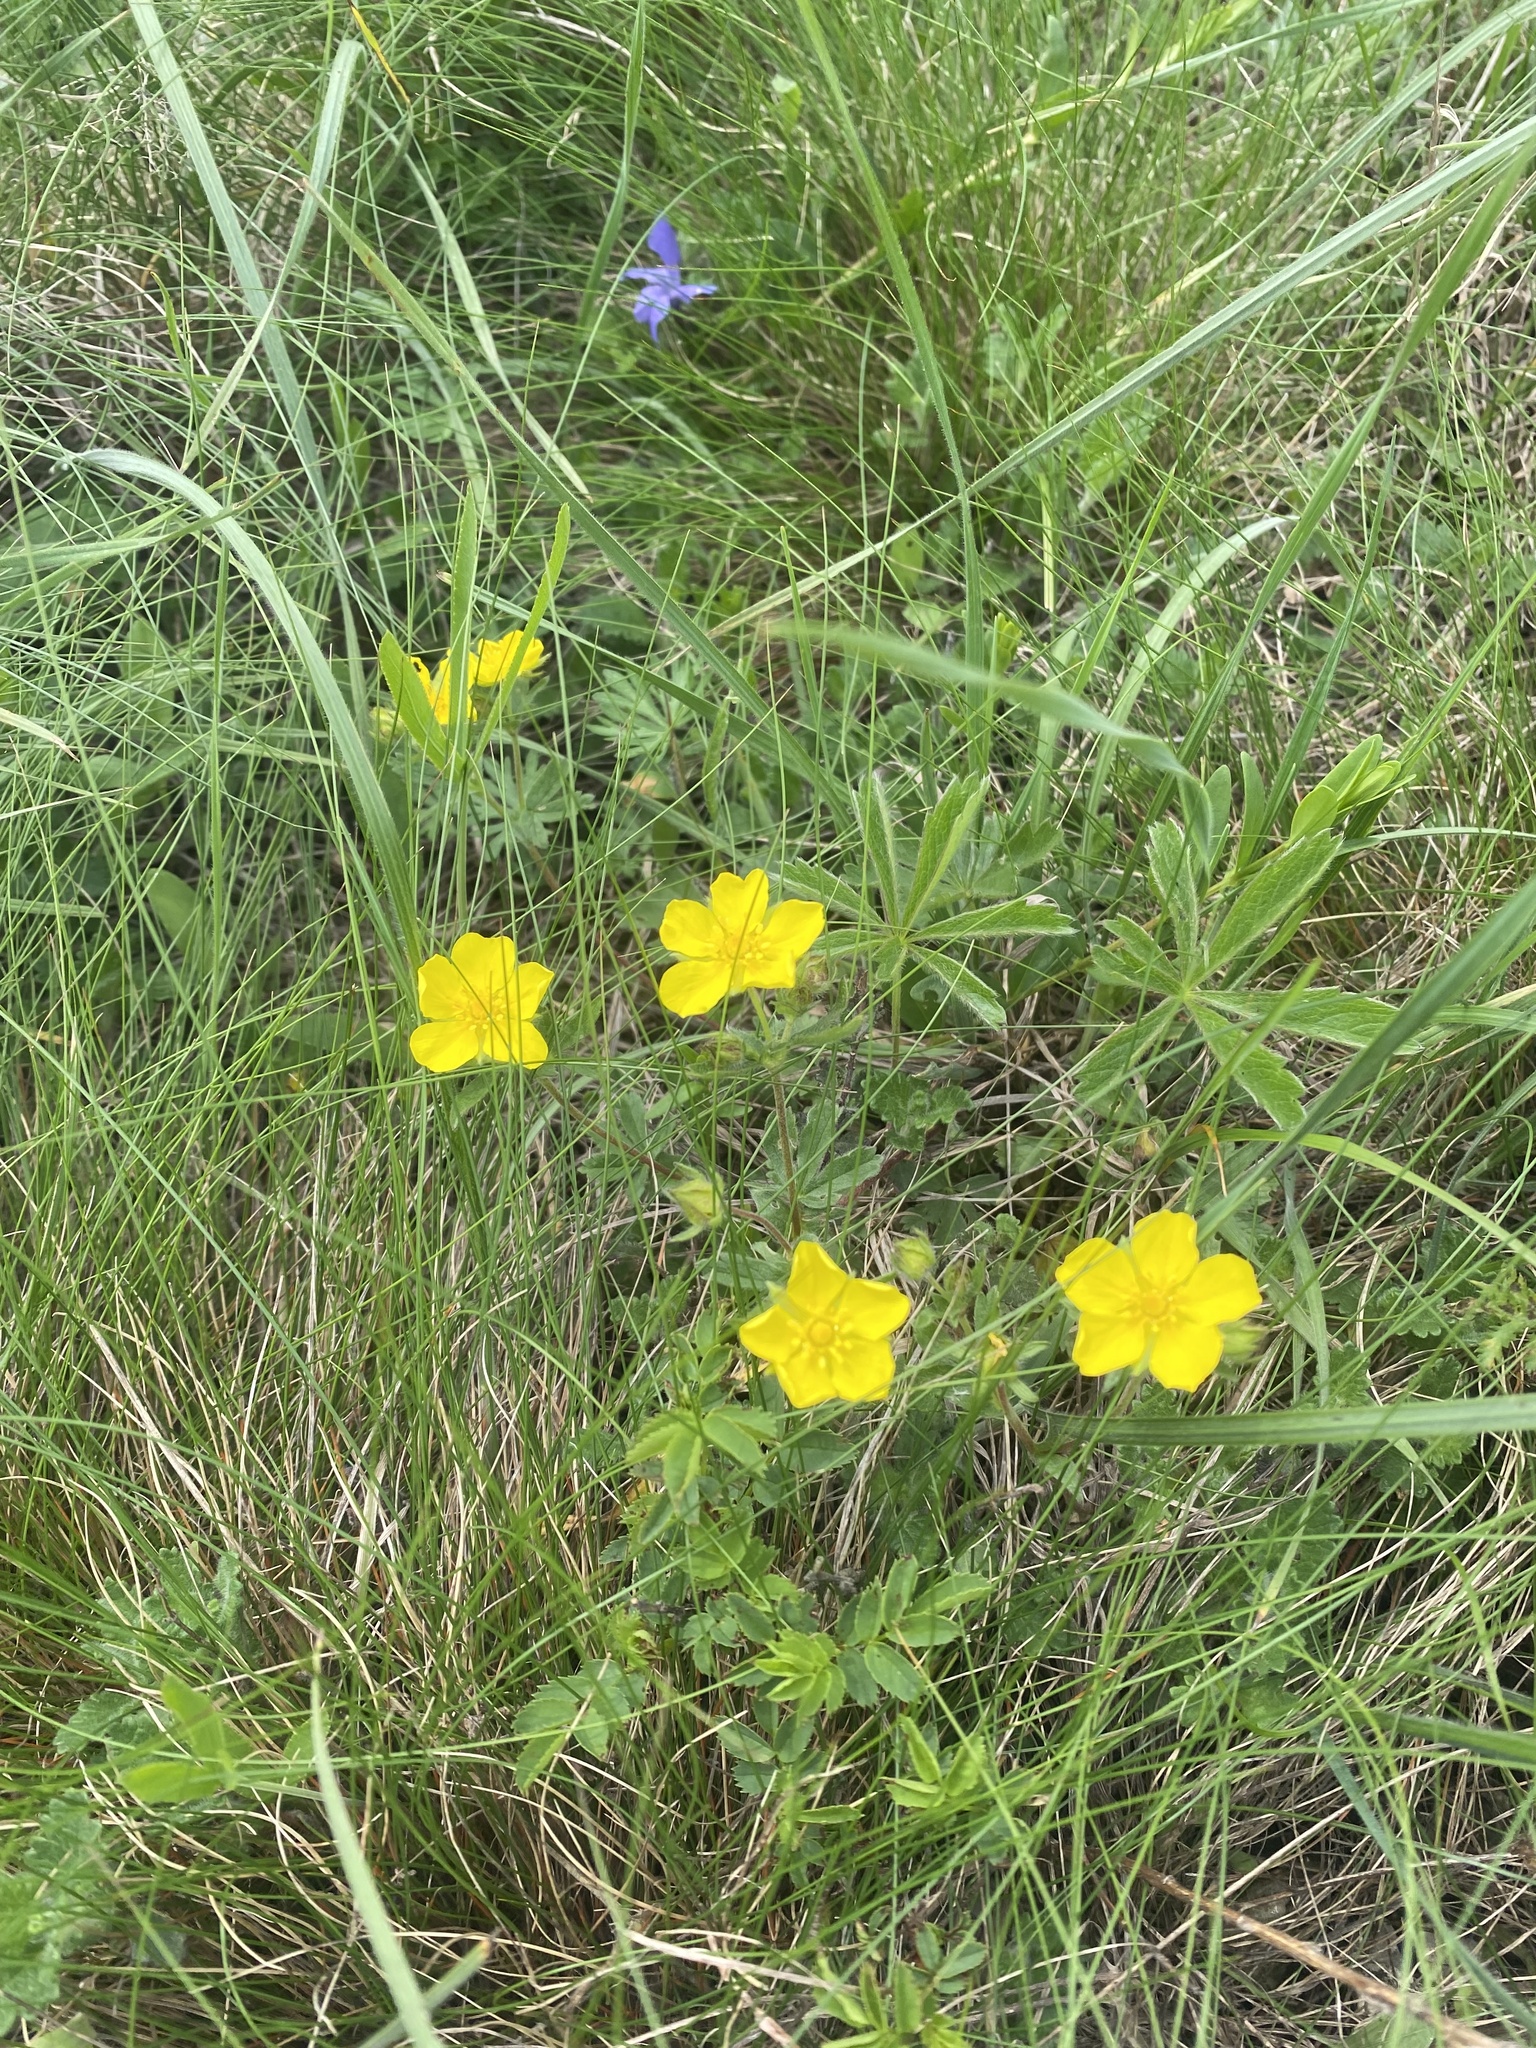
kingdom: Plantae
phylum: Tracheophyta
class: Magnoliopsida
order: Rosales
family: Rosaceae
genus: Potentilla
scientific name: Potentilla sphenophylla
